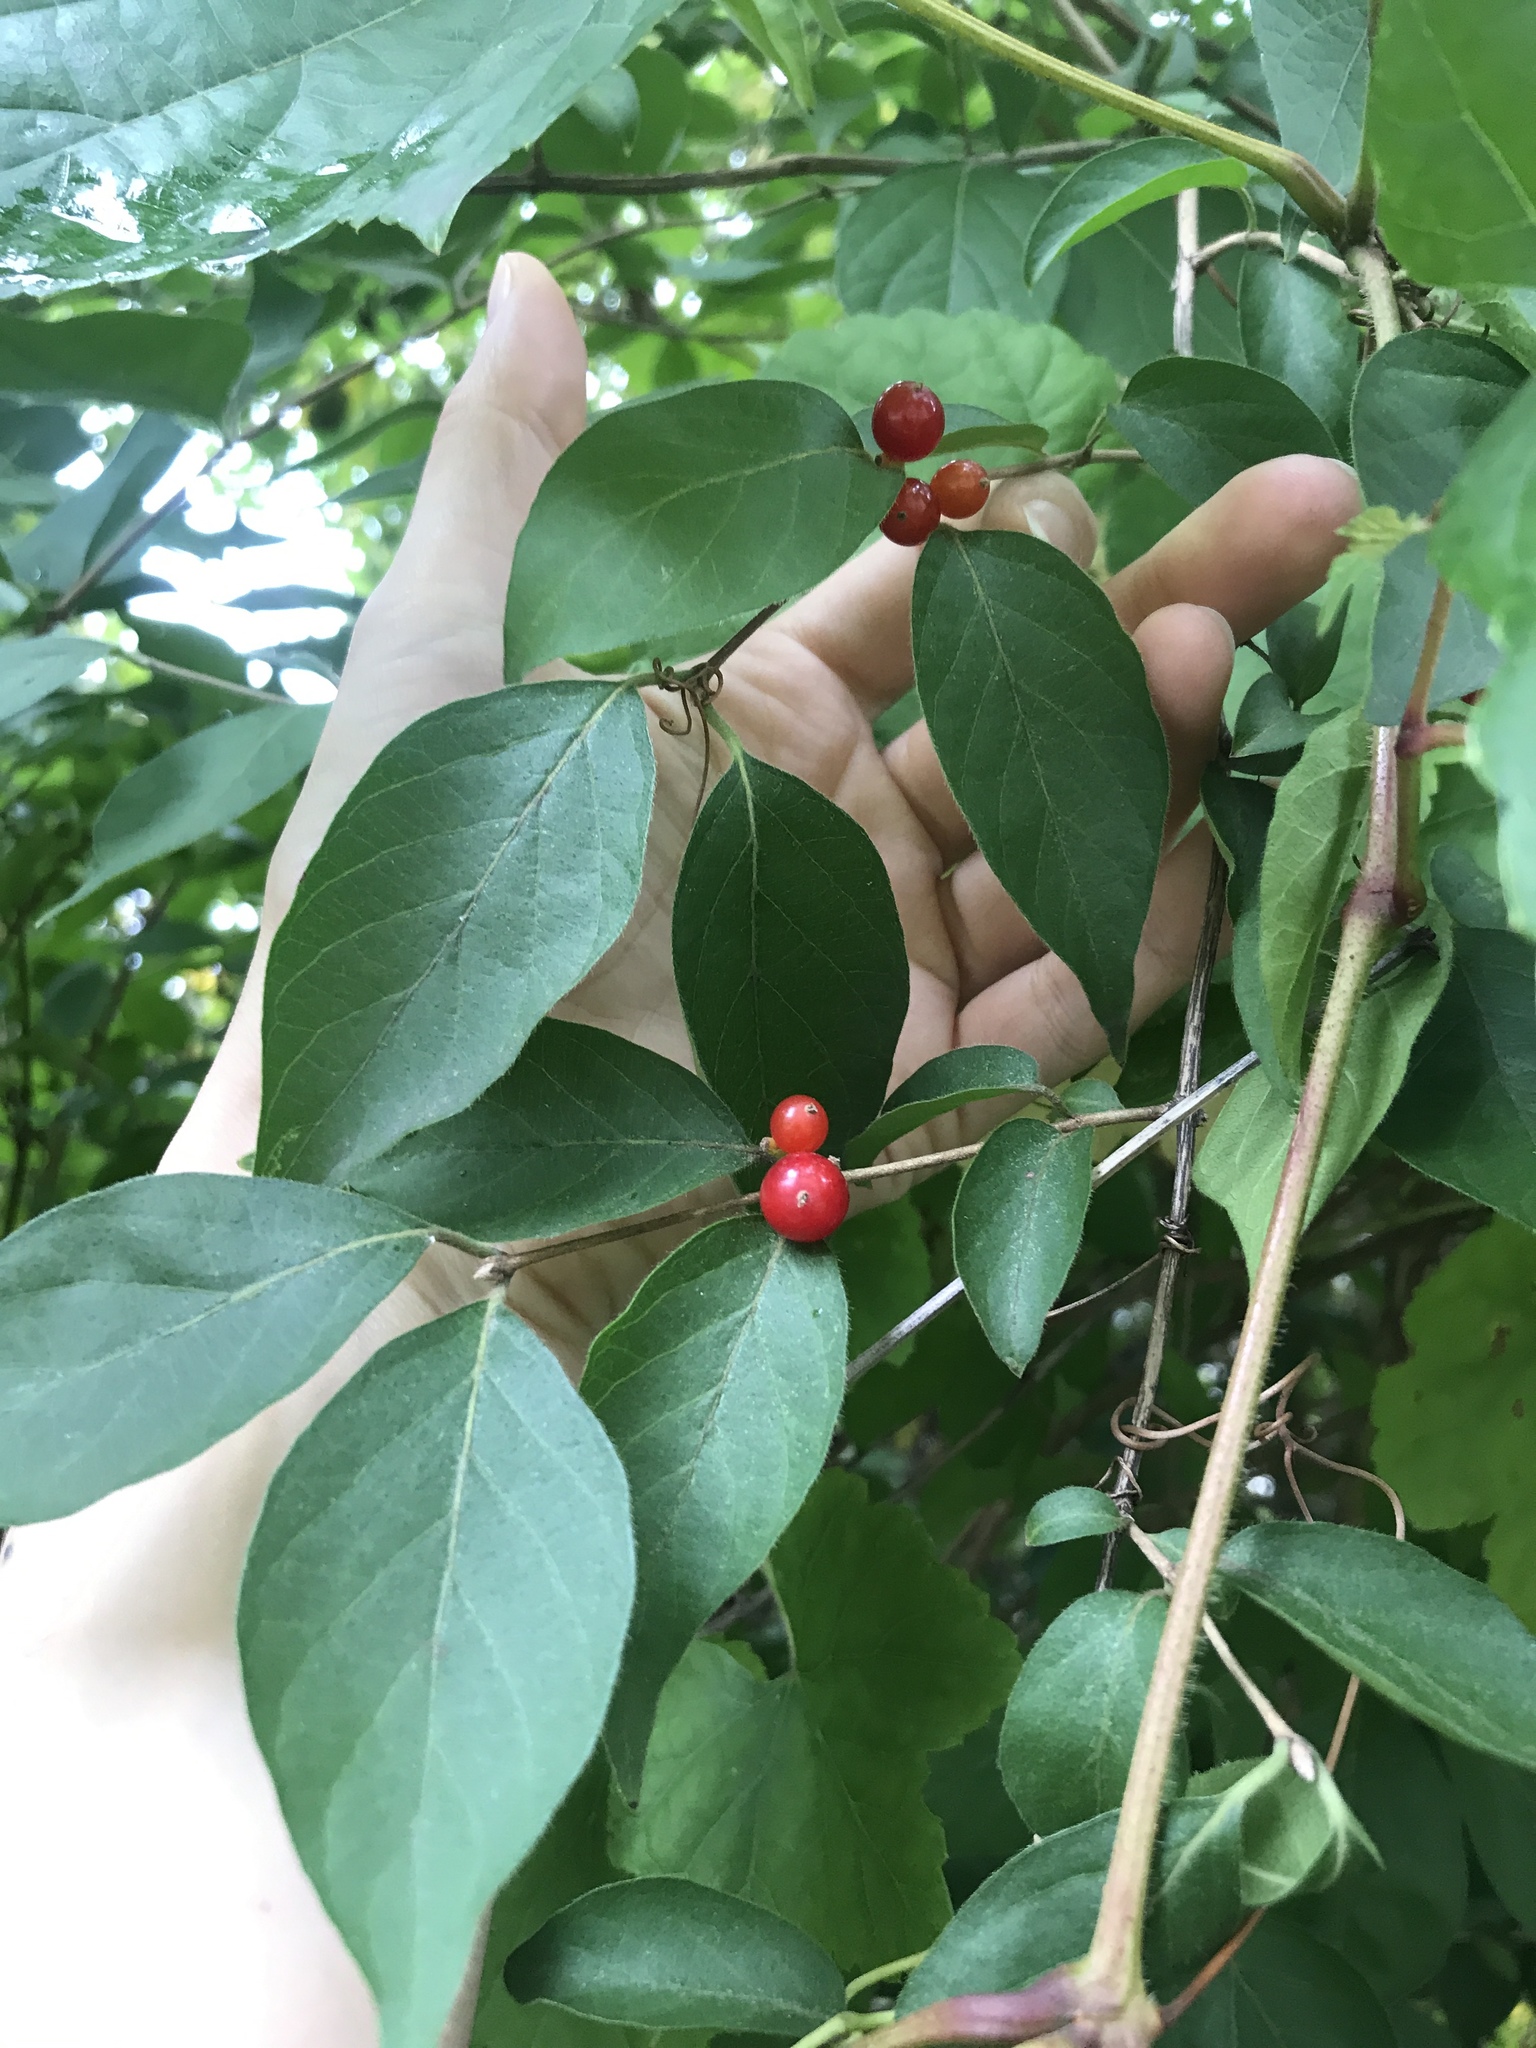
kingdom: Plantae
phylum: Tracheophyta
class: Magnoliopsida
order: Dipsacales
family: Caprifoliaceae
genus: Lonicera
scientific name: Lonicera maackii
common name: Amur honeysuckle
